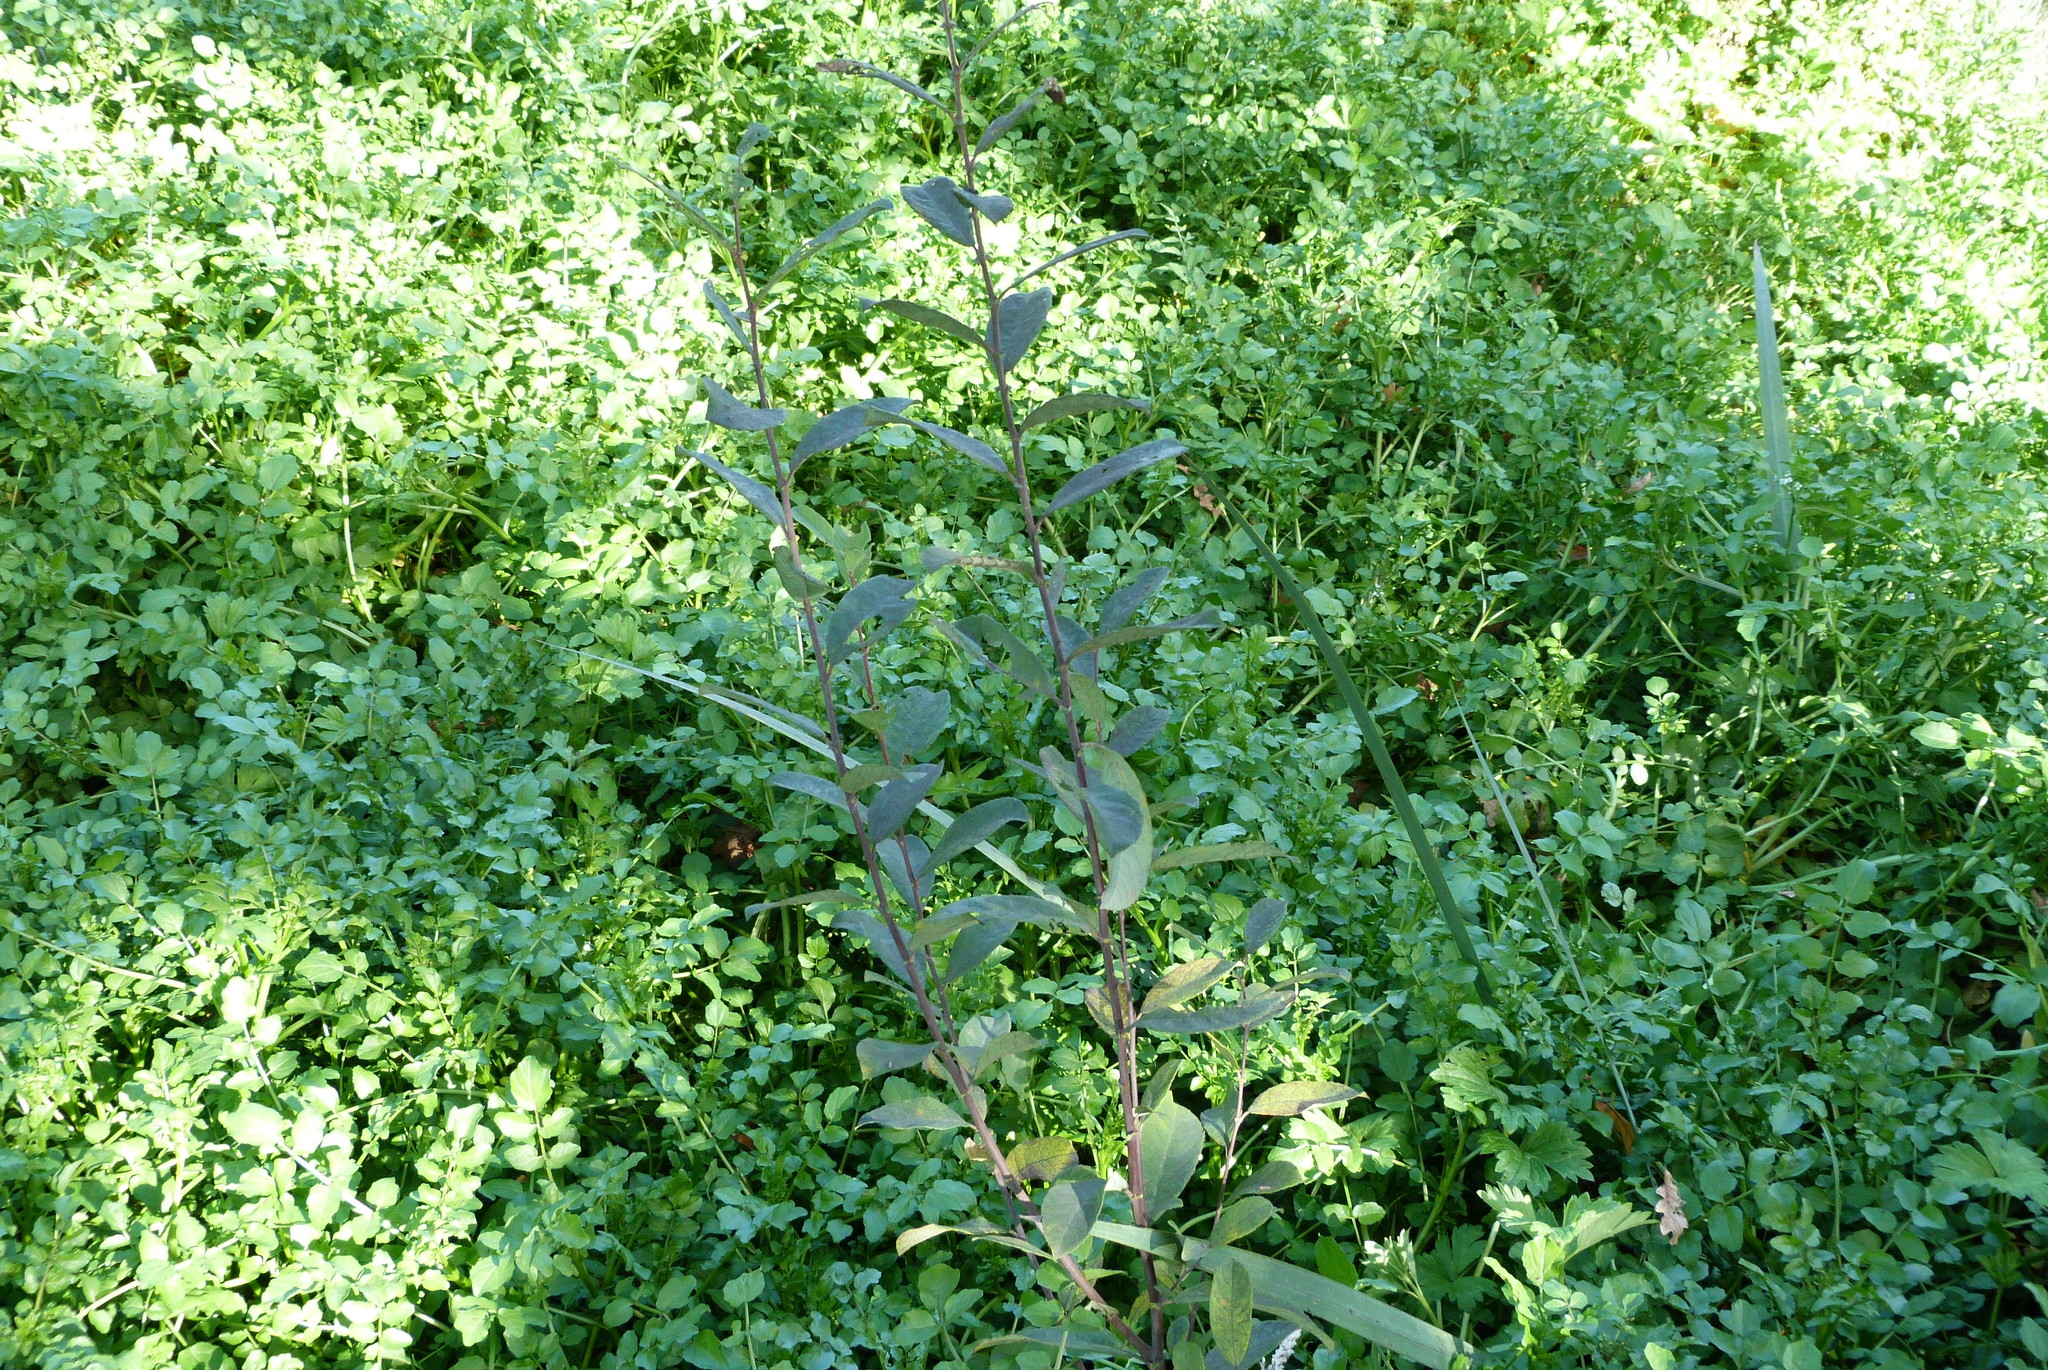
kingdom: Plantae
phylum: Tracheophyta
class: Magnoliopsida
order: Malpighiales
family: Salicaceae
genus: Salix
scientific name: Salix cinerea
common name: Common sallow
